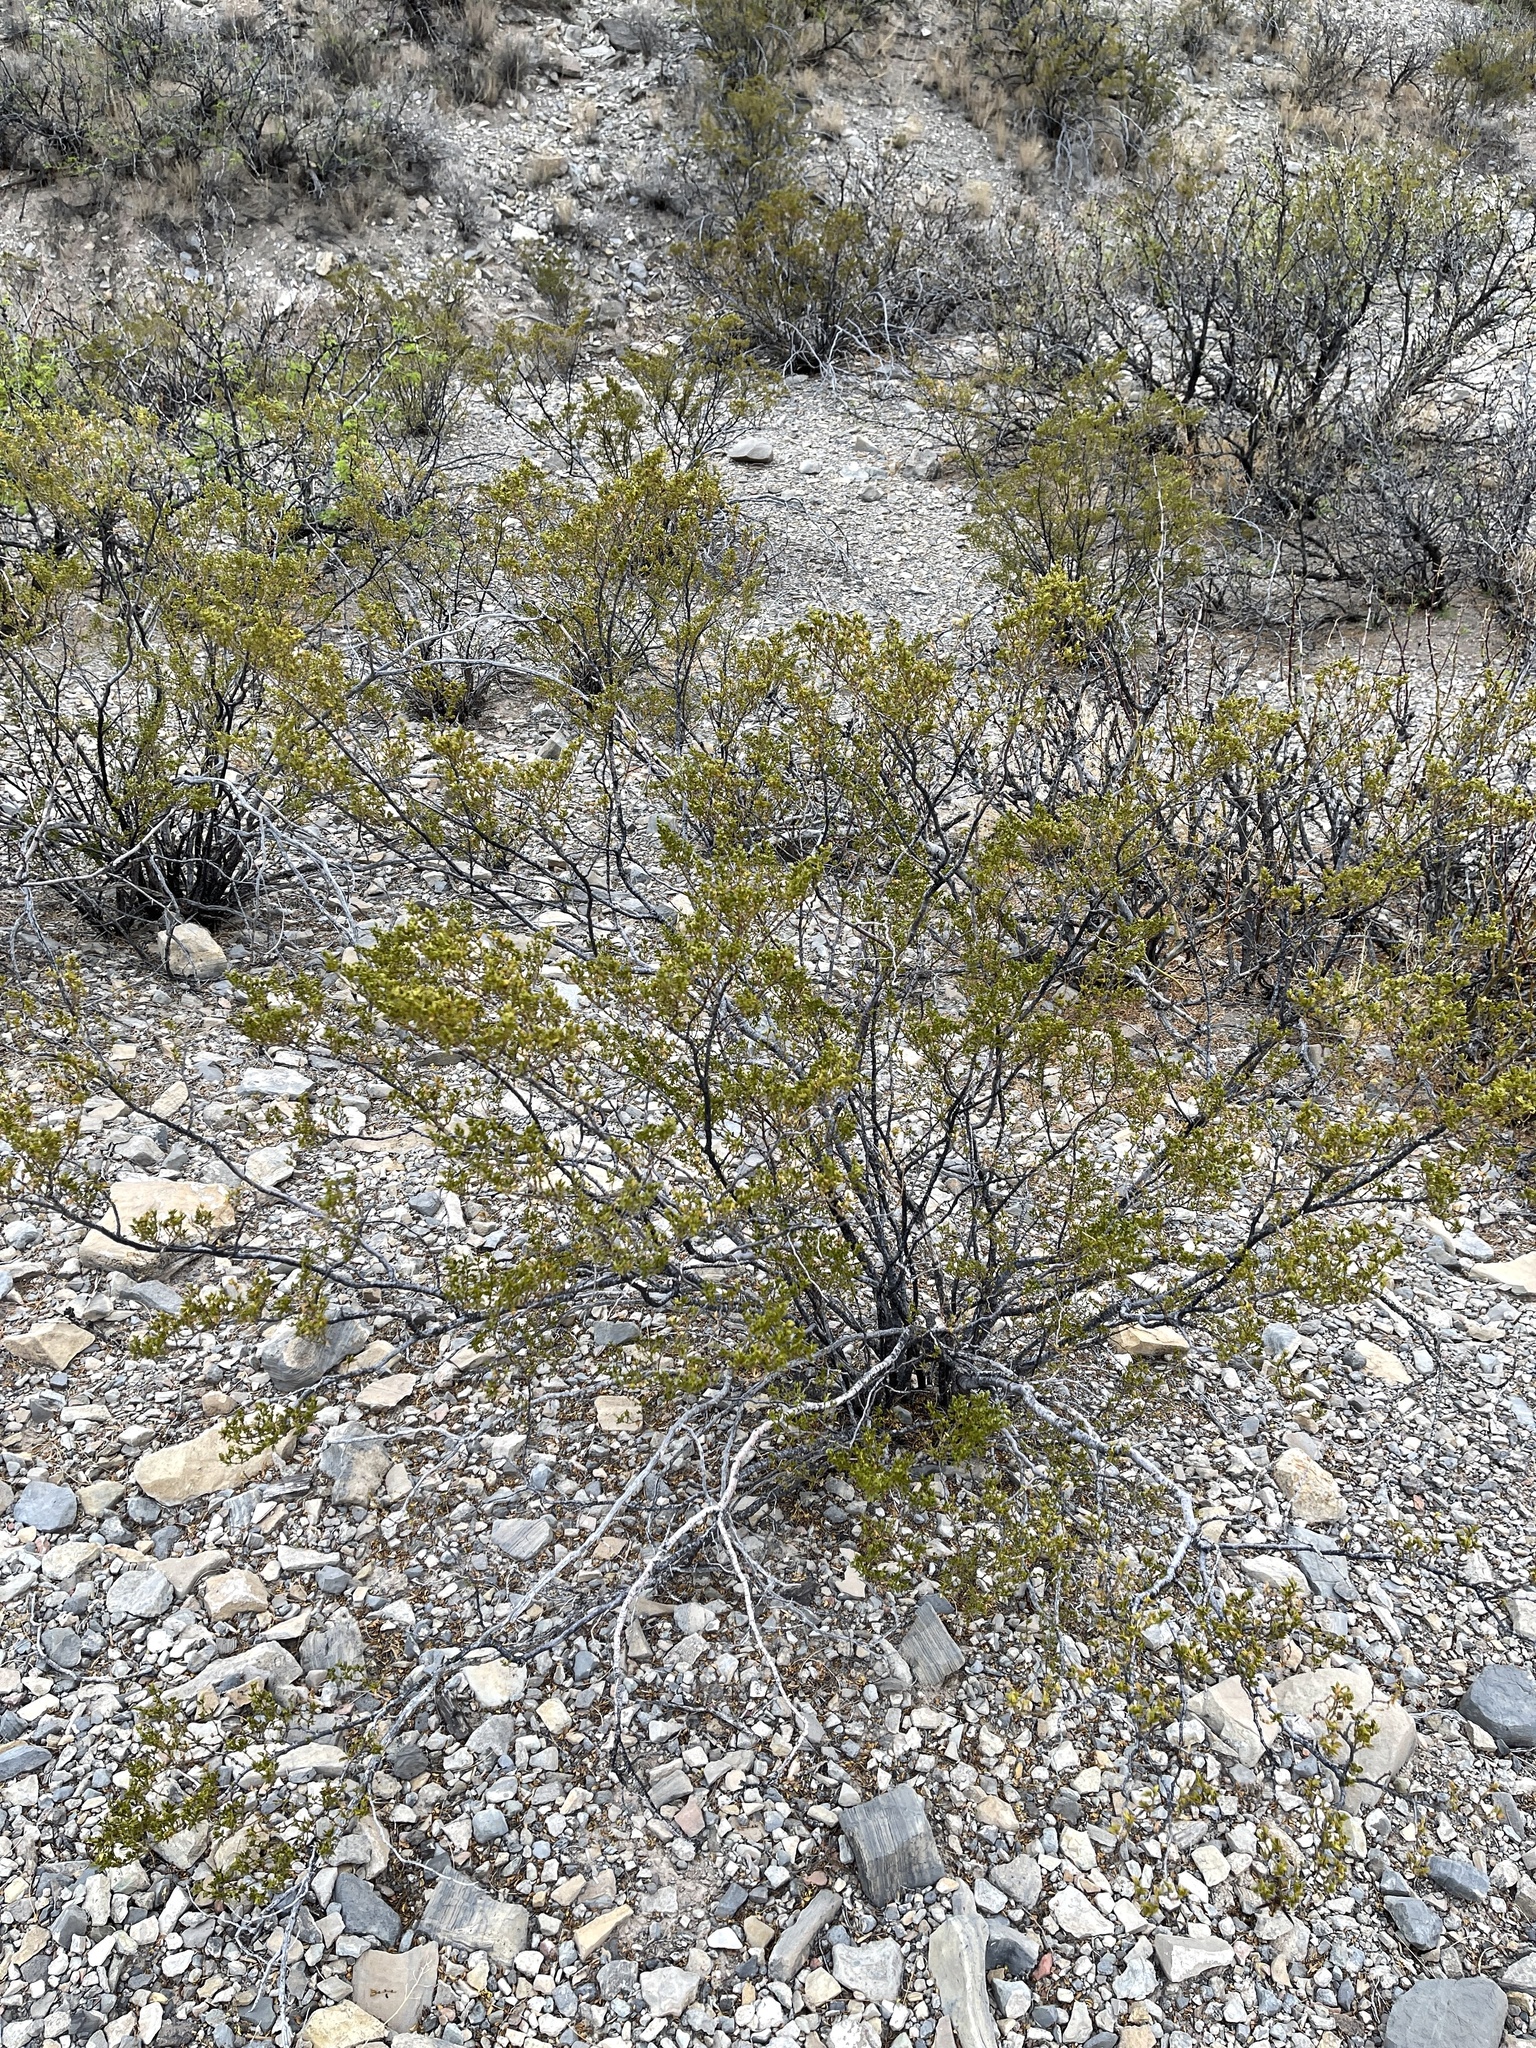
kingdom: Plantae
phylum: Tracheophyta
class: Magnoliopsida
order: Zygophyllales
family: Zygophyllaceae
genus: Larrea
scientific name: Larrea tridentata
